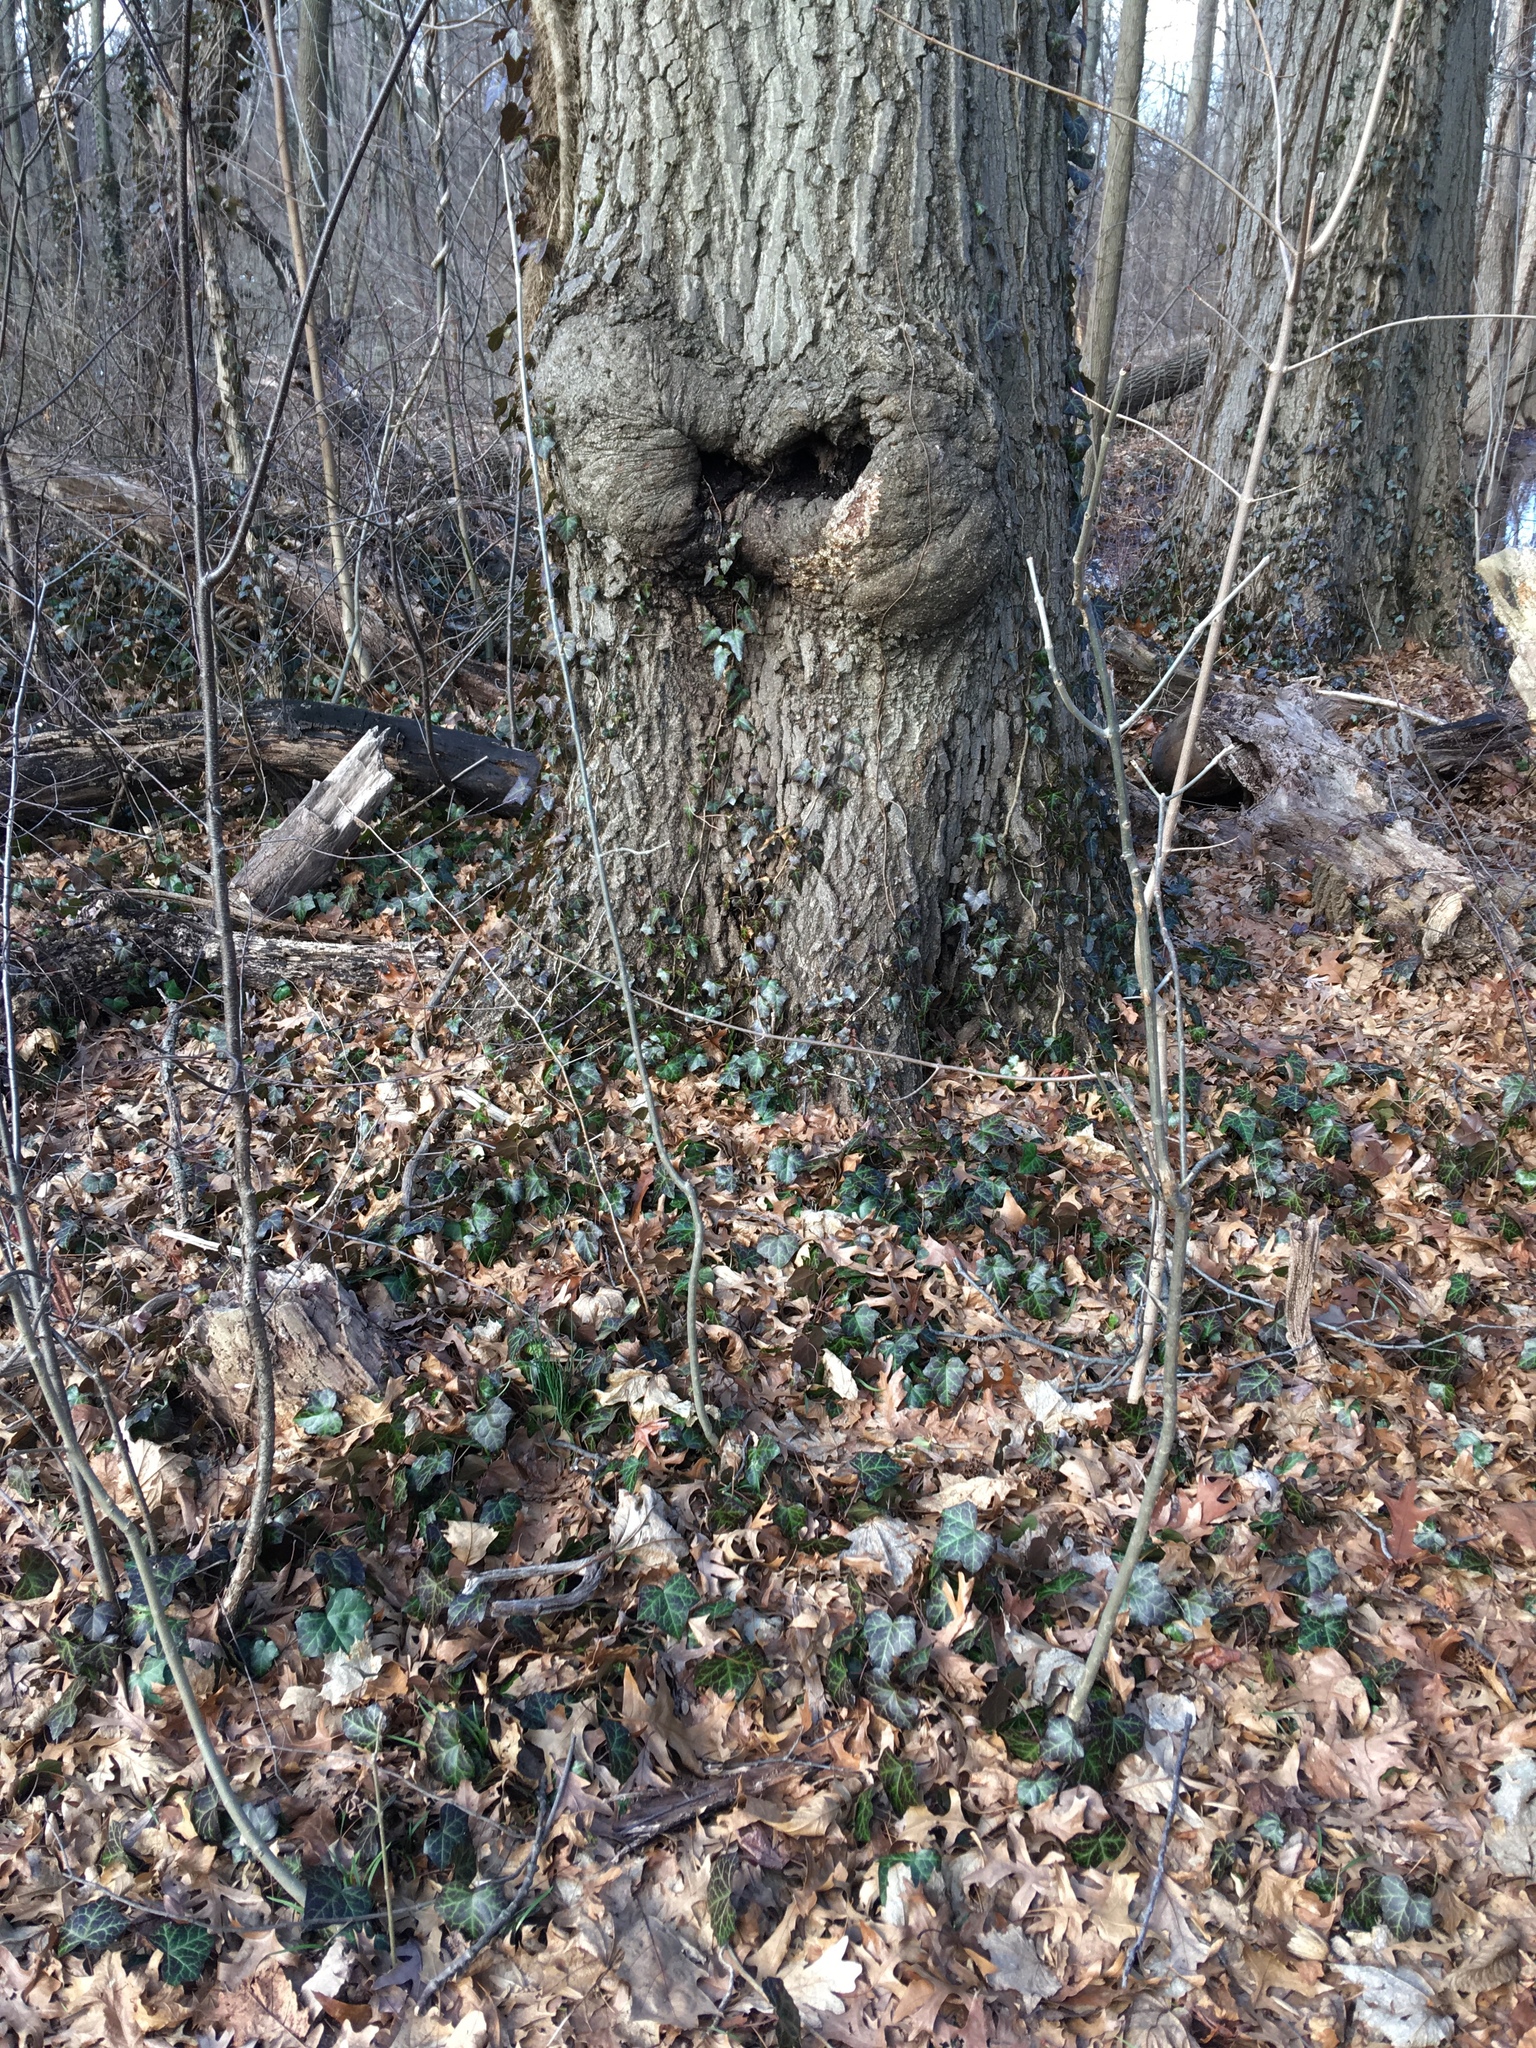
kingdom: Plantae
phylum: Tracheophyta
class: Magnoliopsida
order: Apiales
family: Araliaceae
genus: Hedera
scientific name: Hedera helix
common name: Ivy
